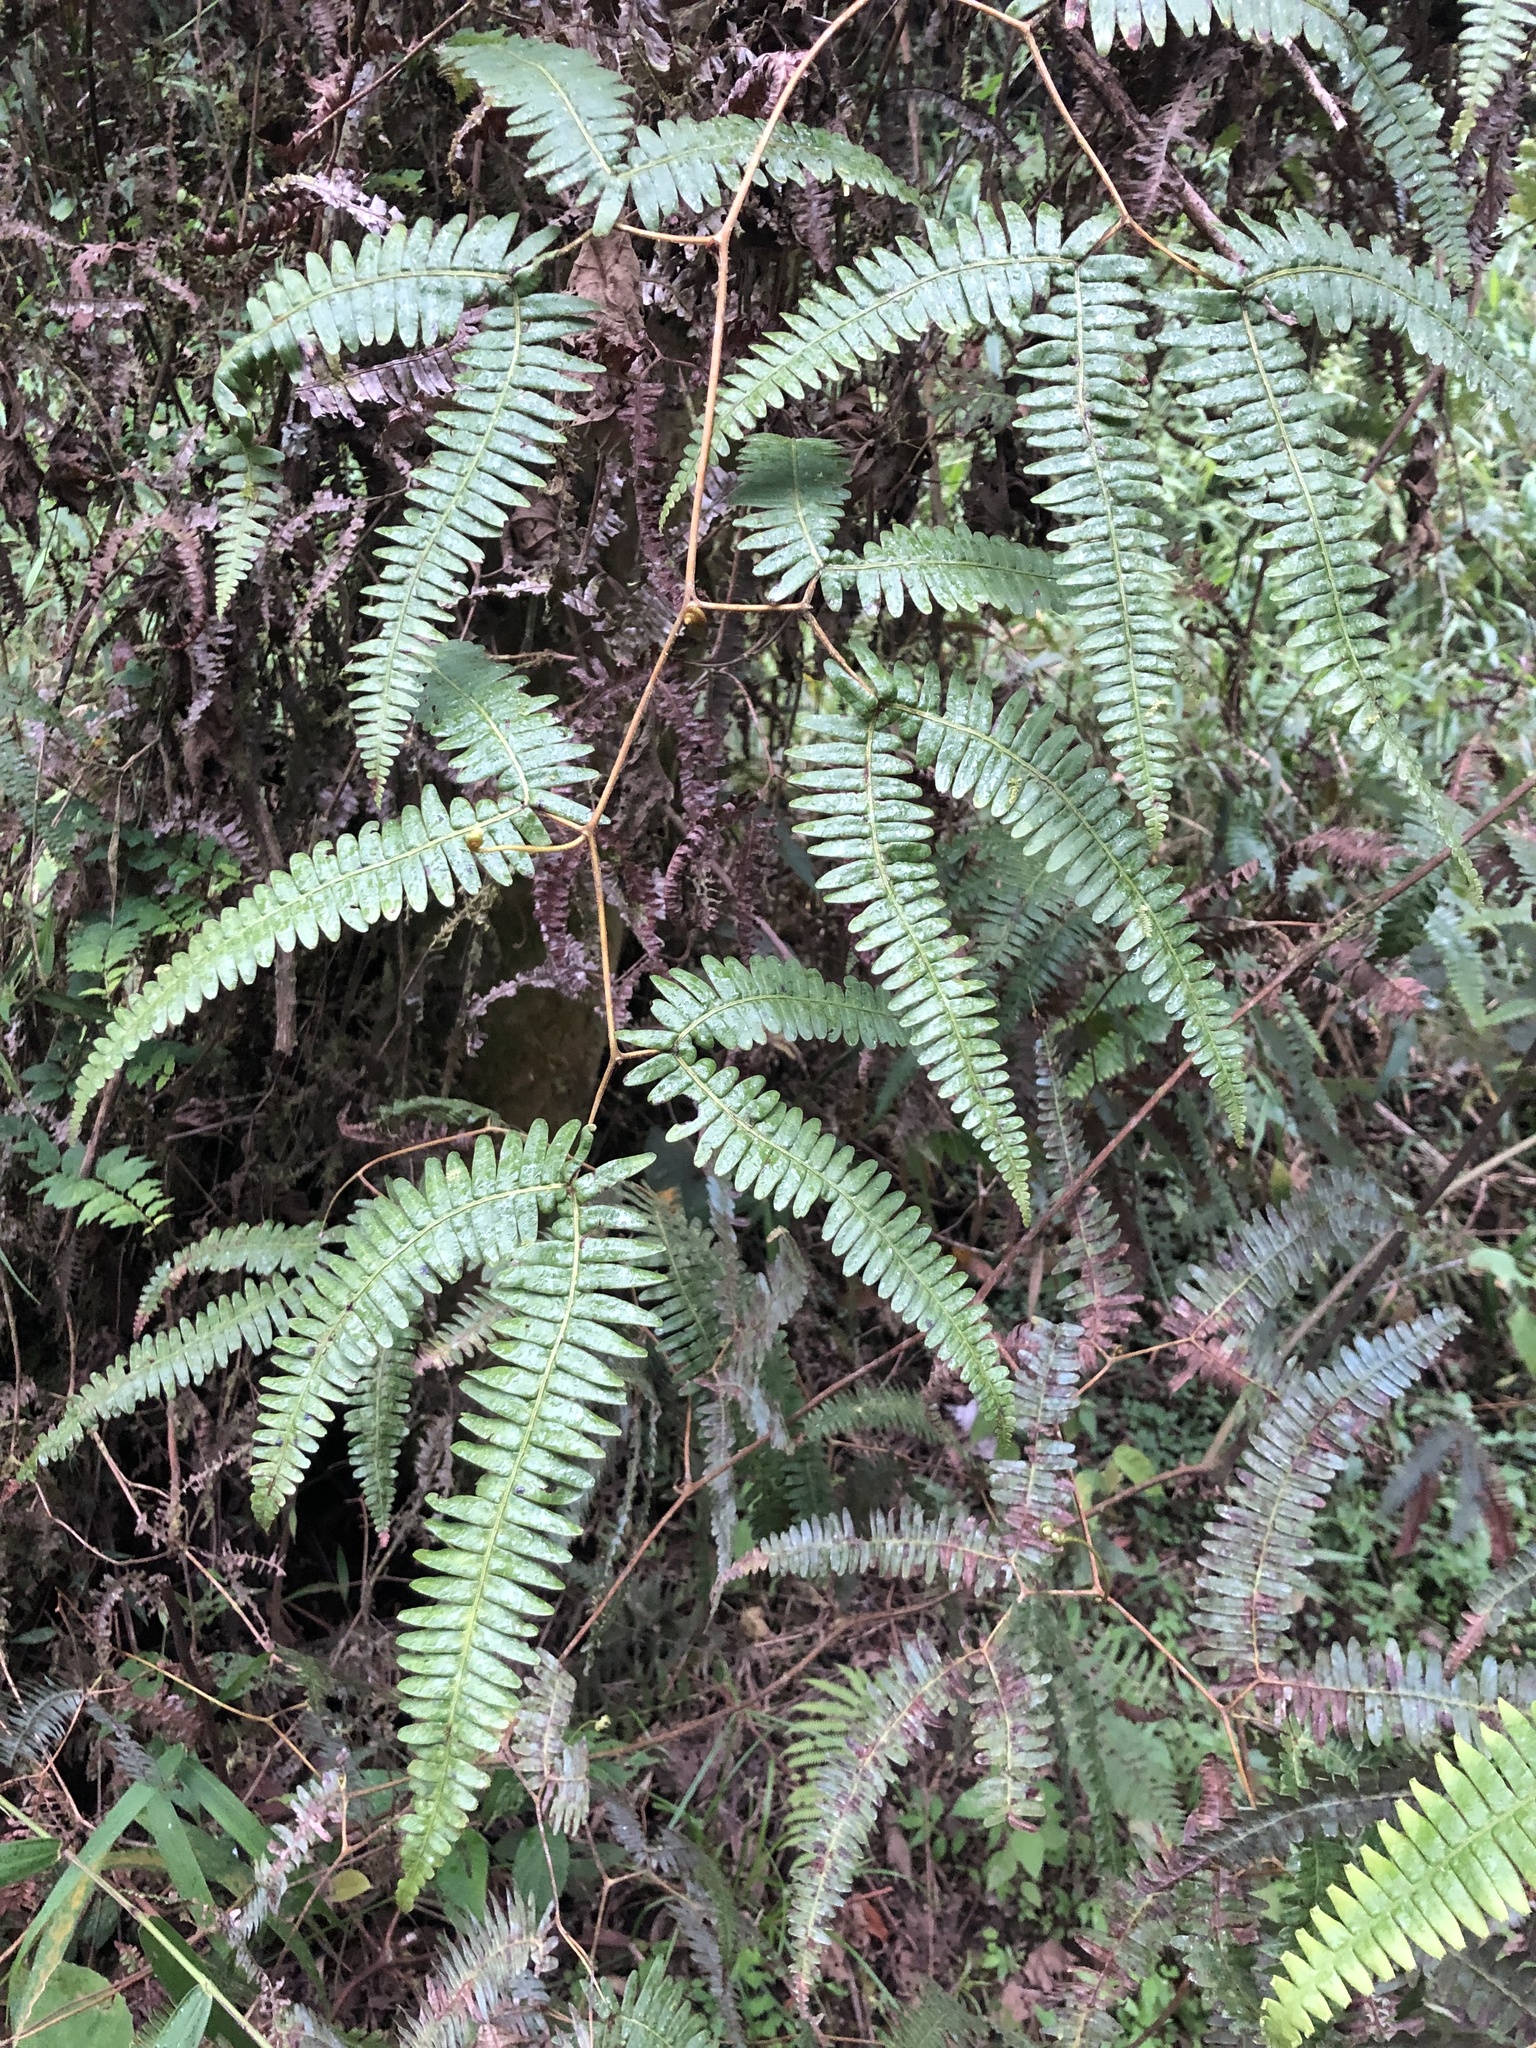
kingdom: Plantae
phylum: Tracheophyta
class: Polypodiopsida
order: Gleicheniales
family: Gleicheniaceae
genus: Gleichenella
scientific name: Gleichenella pectinata
